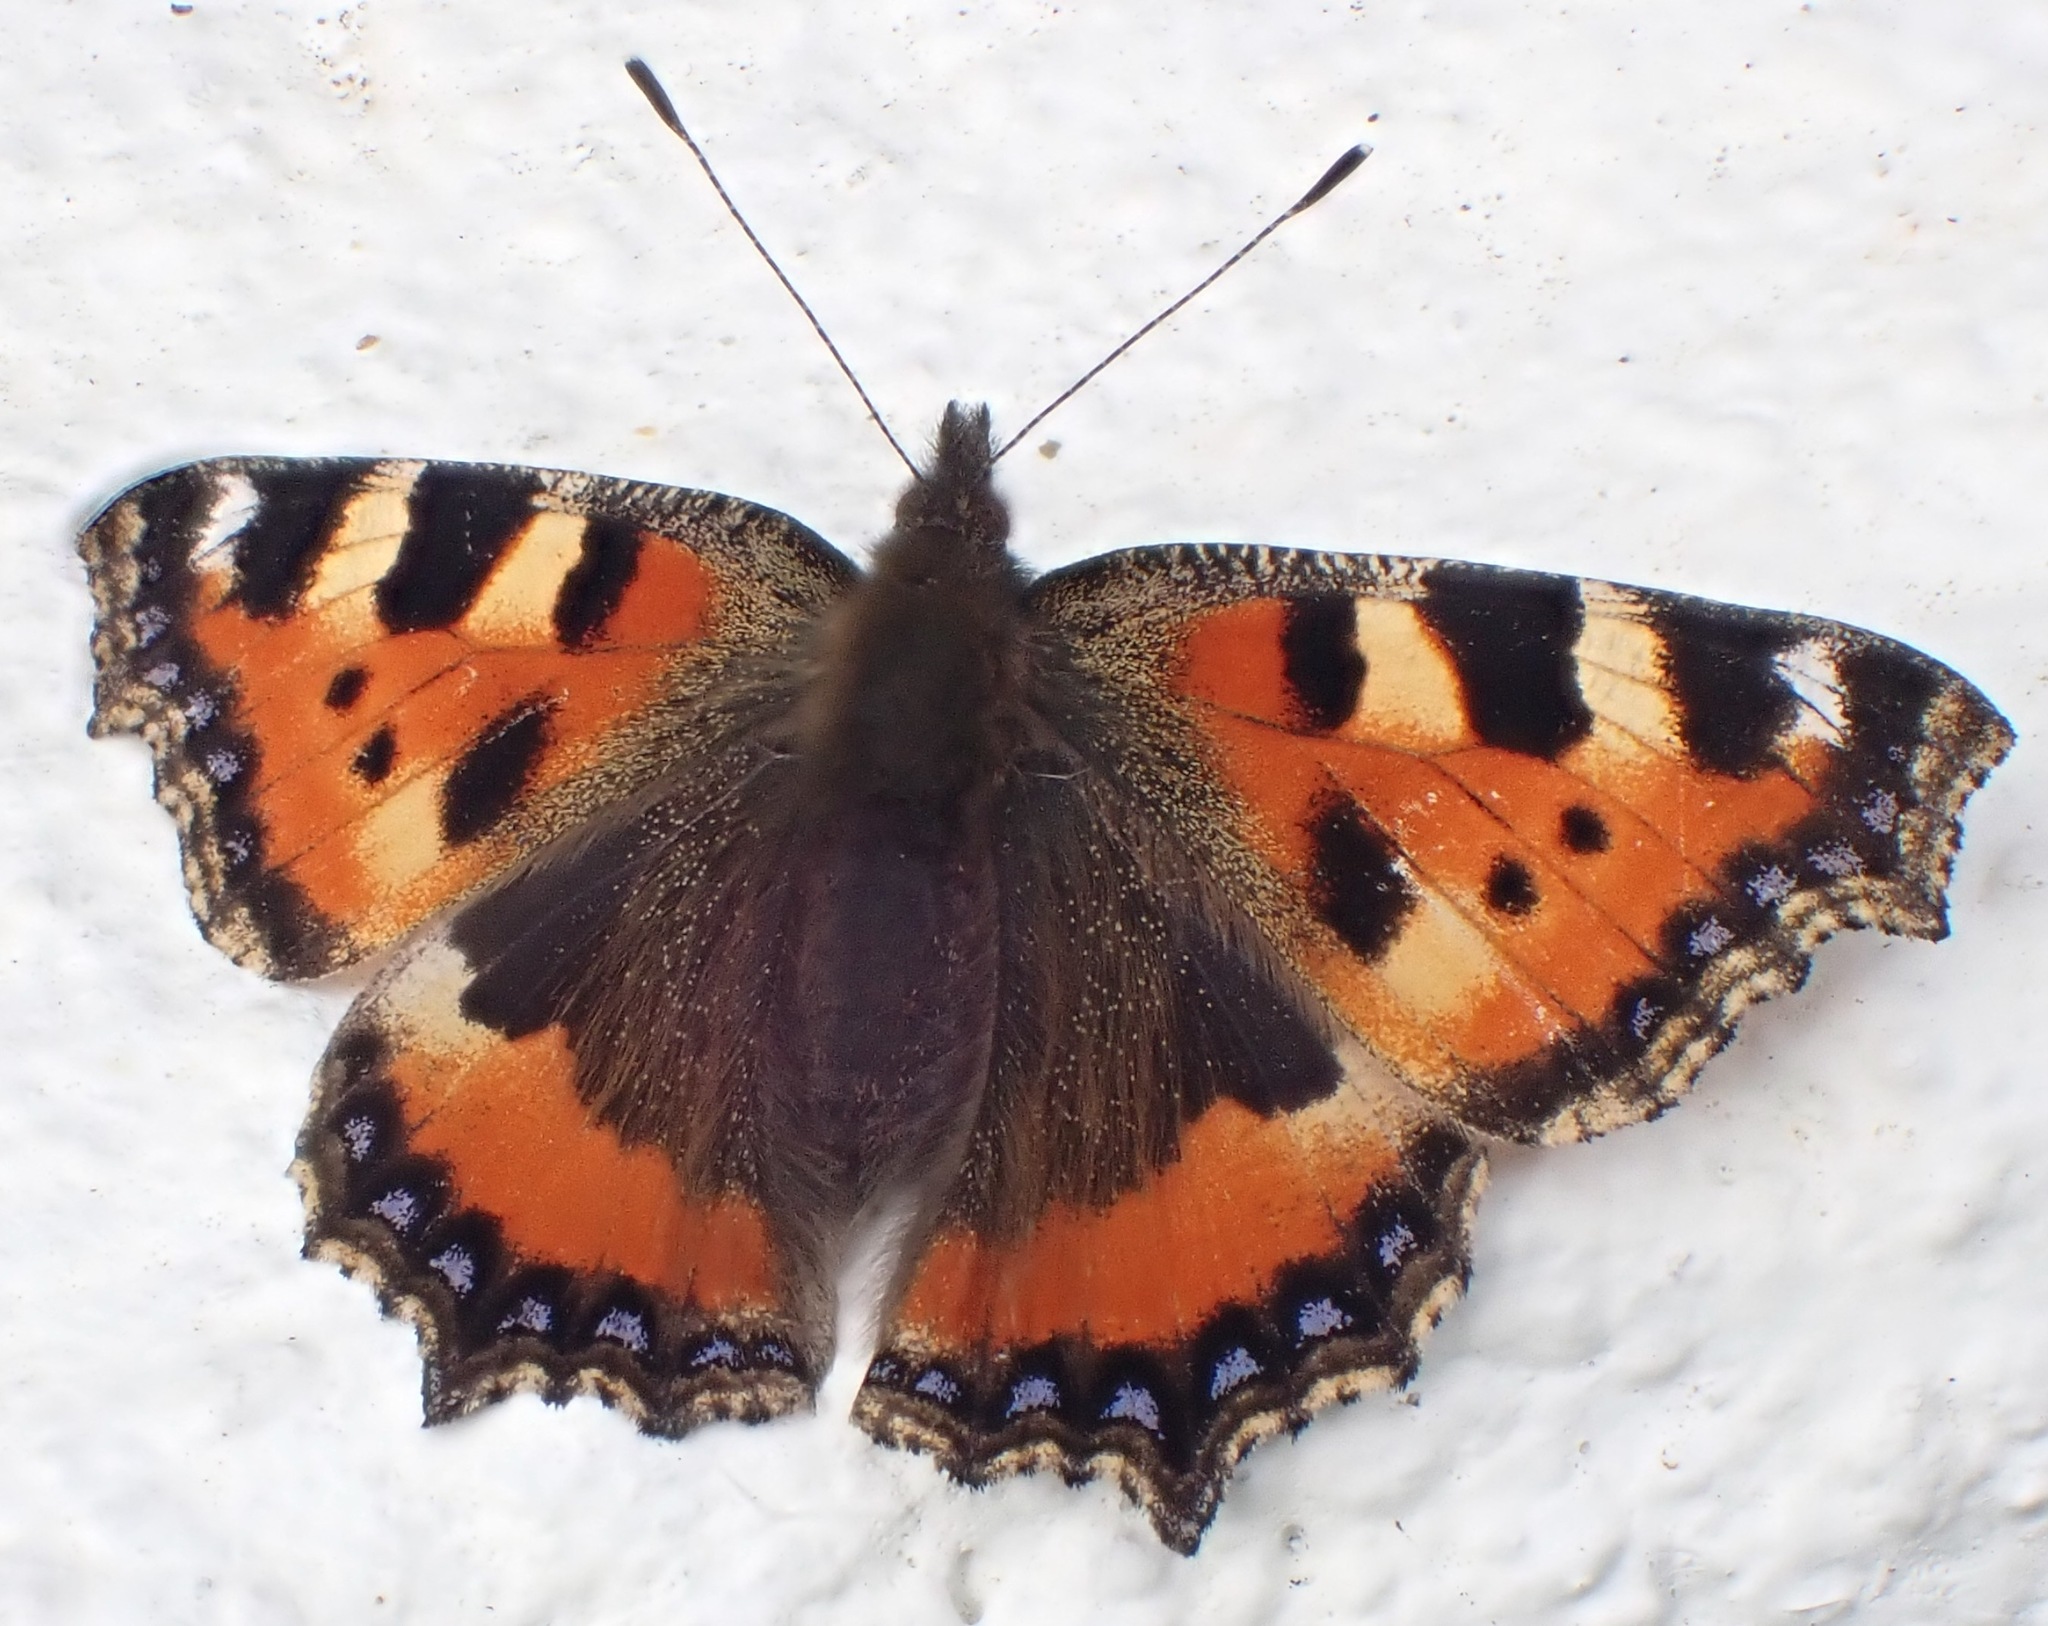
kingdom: Animalia
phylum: Arthropoda
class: Insecta
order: Lepidoptera
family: Nymphalidae
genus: Aglais
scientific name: Aglais urticae
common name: Small tortoiseshell
